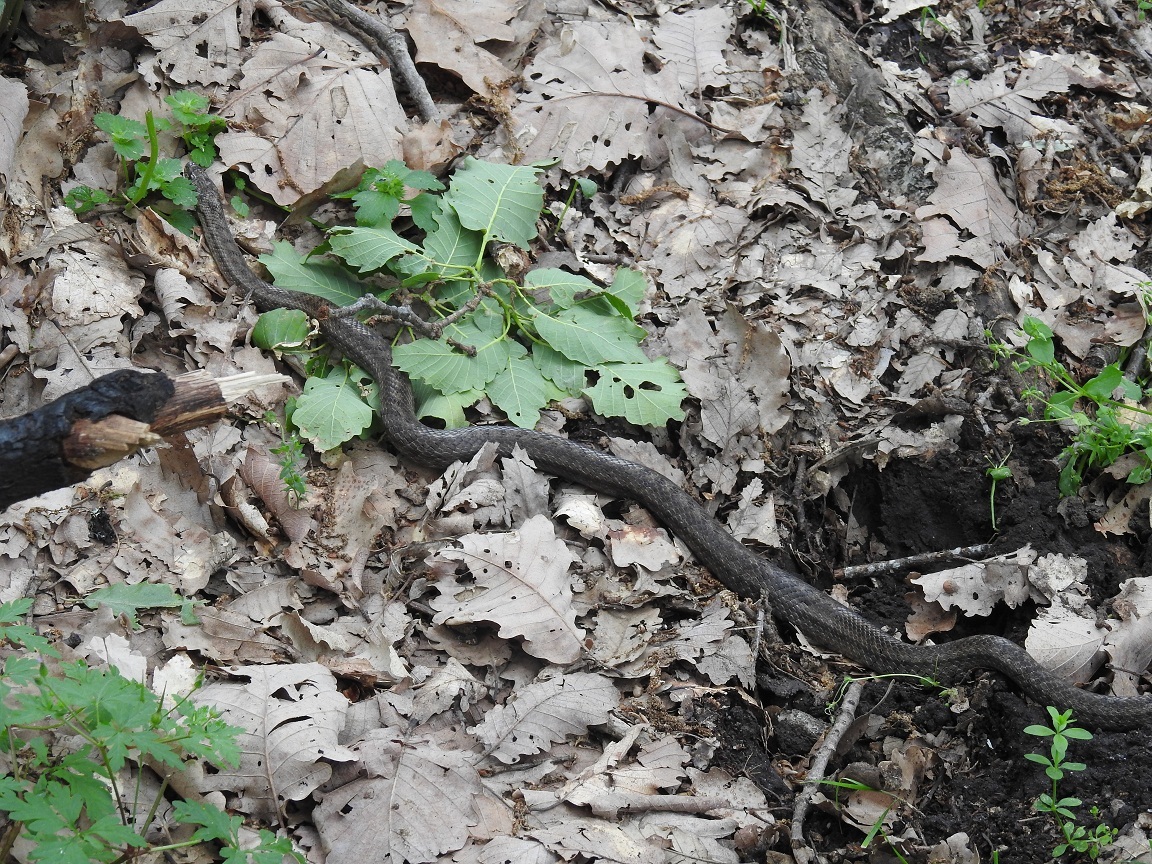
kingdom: Animalia
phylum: Chordata
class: Squamata
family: Colubridae
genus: Coronella
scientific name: Coronella girondica
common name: Southern smooth snake
